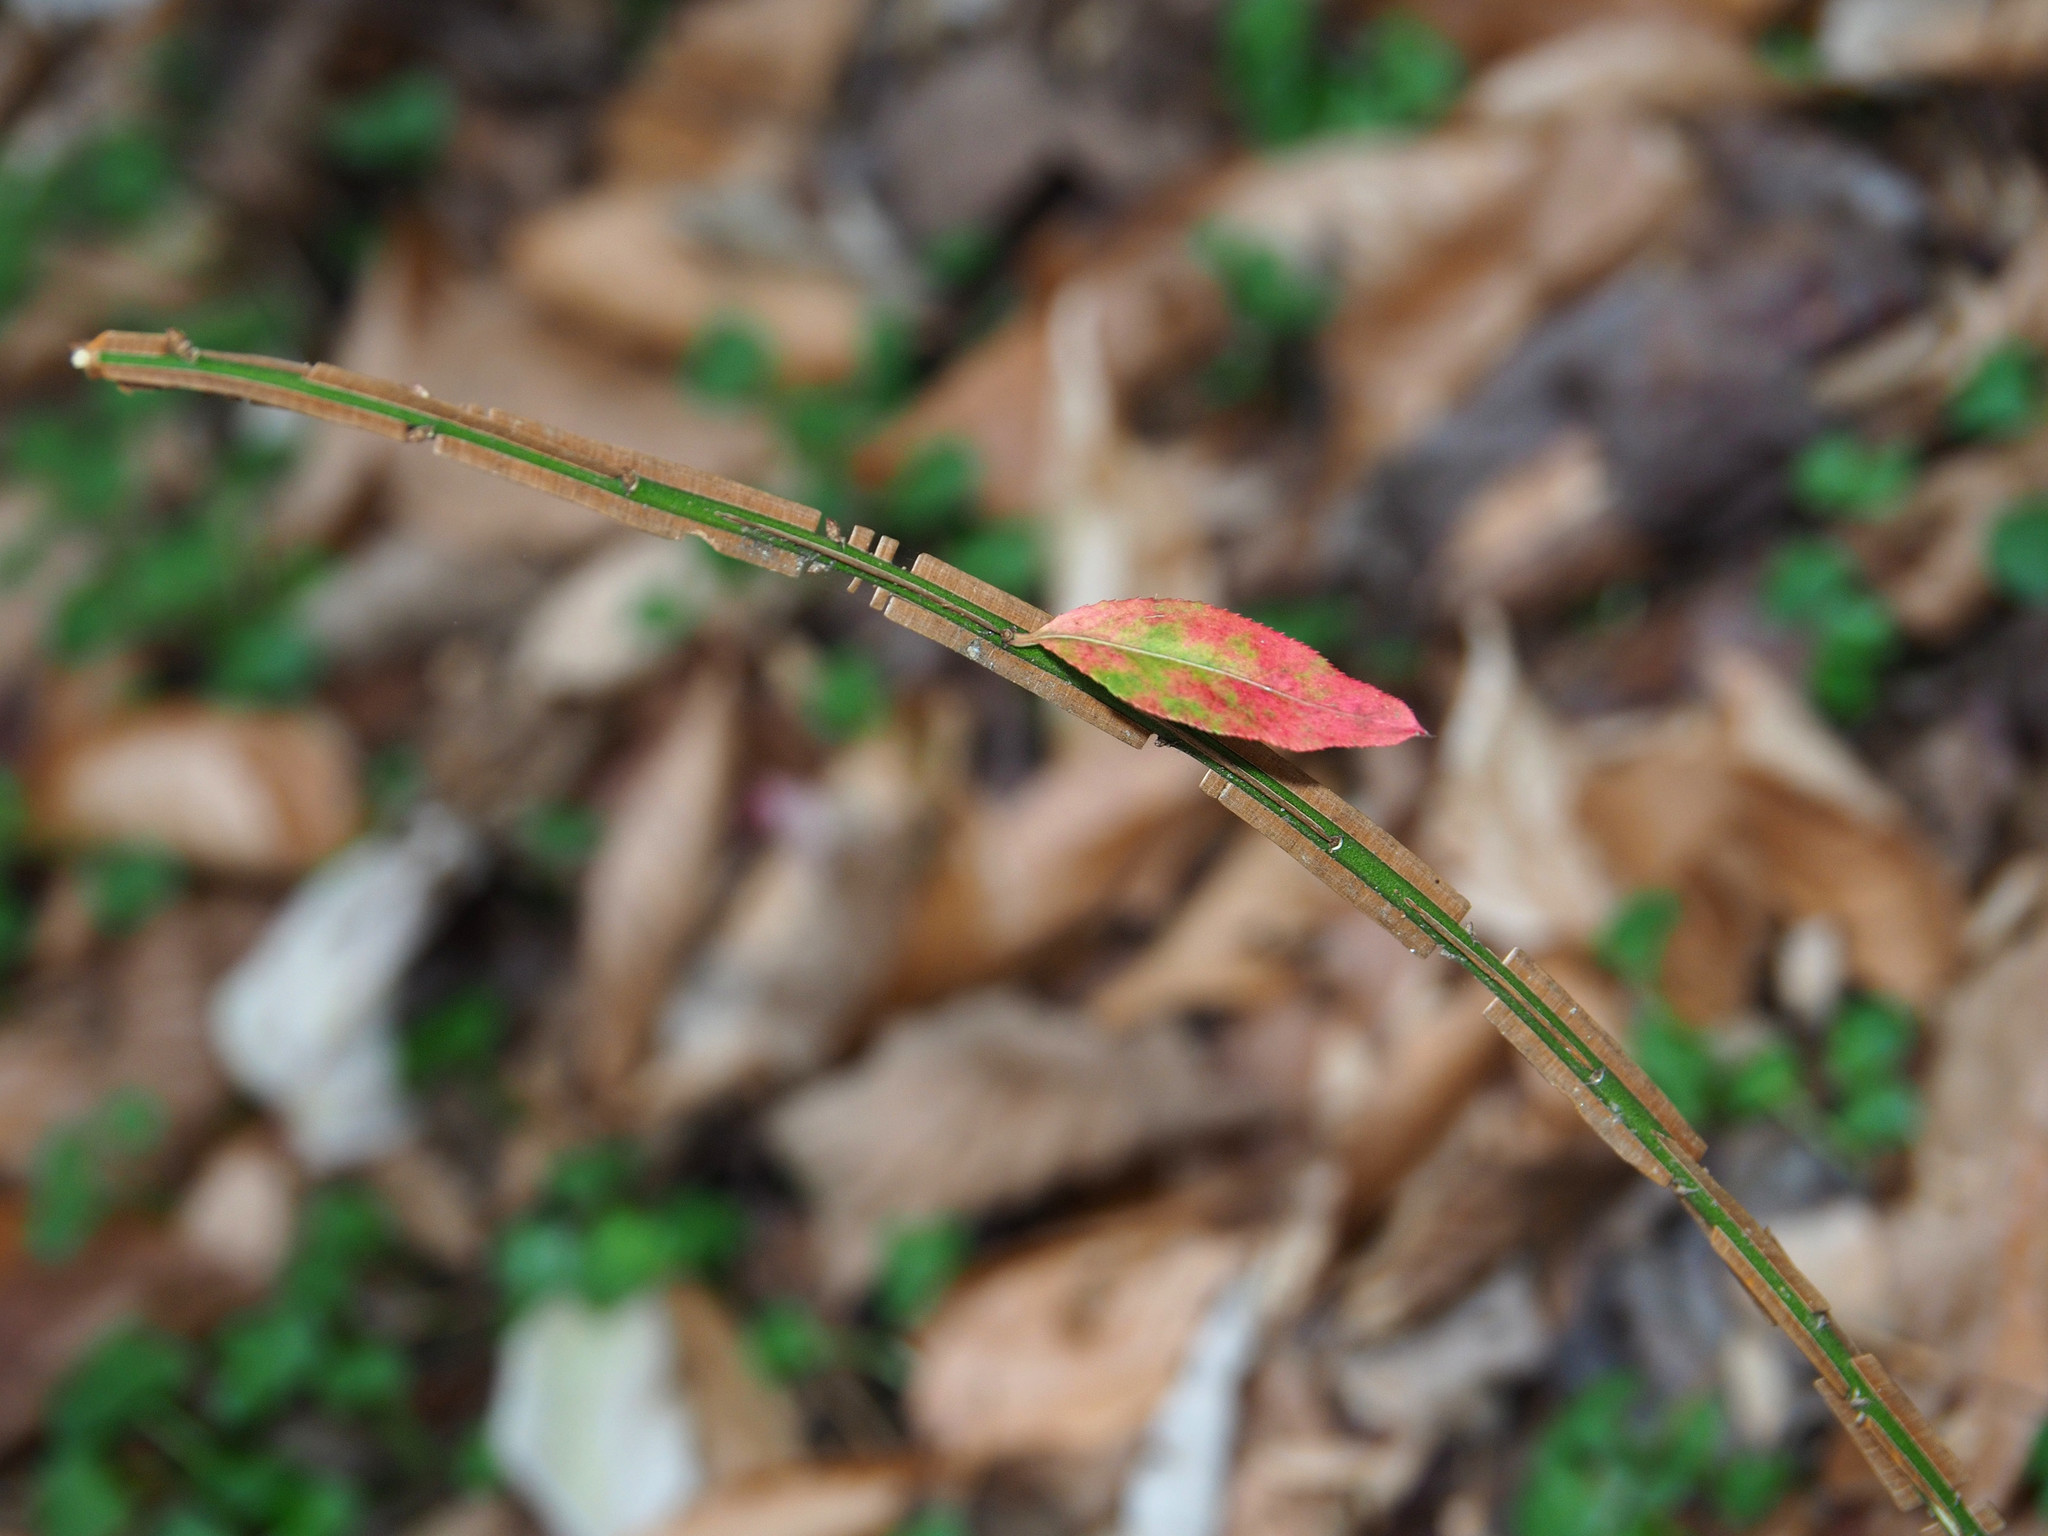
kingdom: Plantae
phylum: Tracheophyta
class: Magnoliopsida
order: Celastrales
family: Celastraceae
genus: Euonymus
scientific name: Euonymus alatus
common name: Winged euonymus
